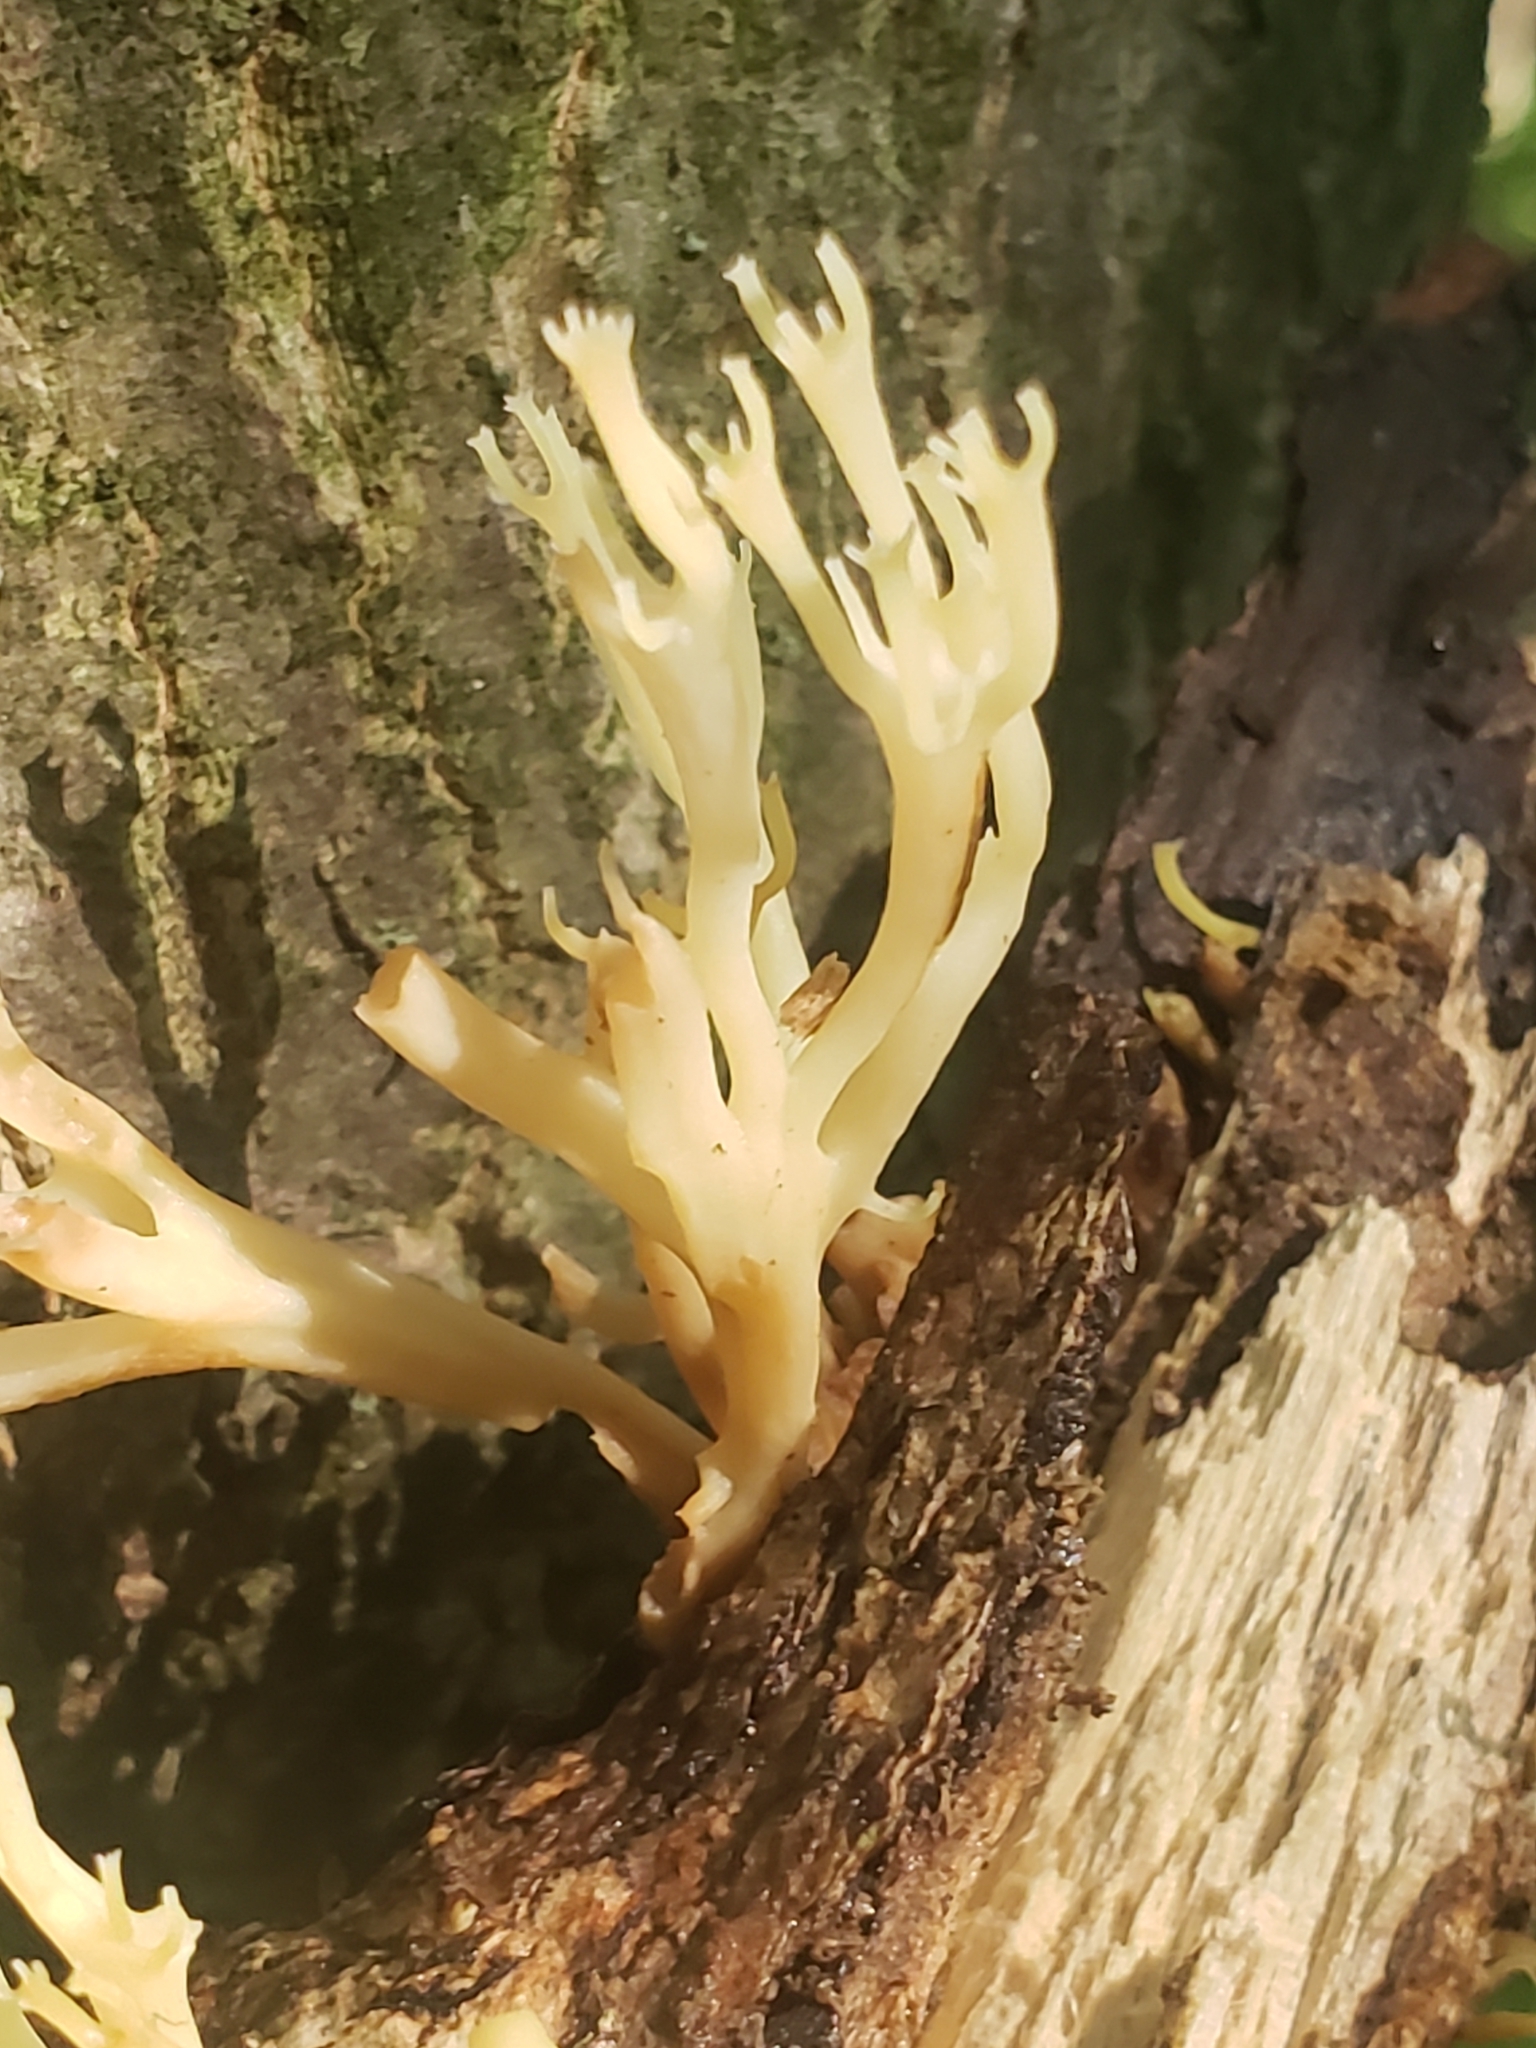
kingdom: Fungi
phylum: Basidiomycota
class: Agaricomycetes
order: Russulales
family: Auriscalpiaceae
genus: Artomyces
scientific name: Artomyces pyxidatus
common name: Crown-tipped coral fungus
